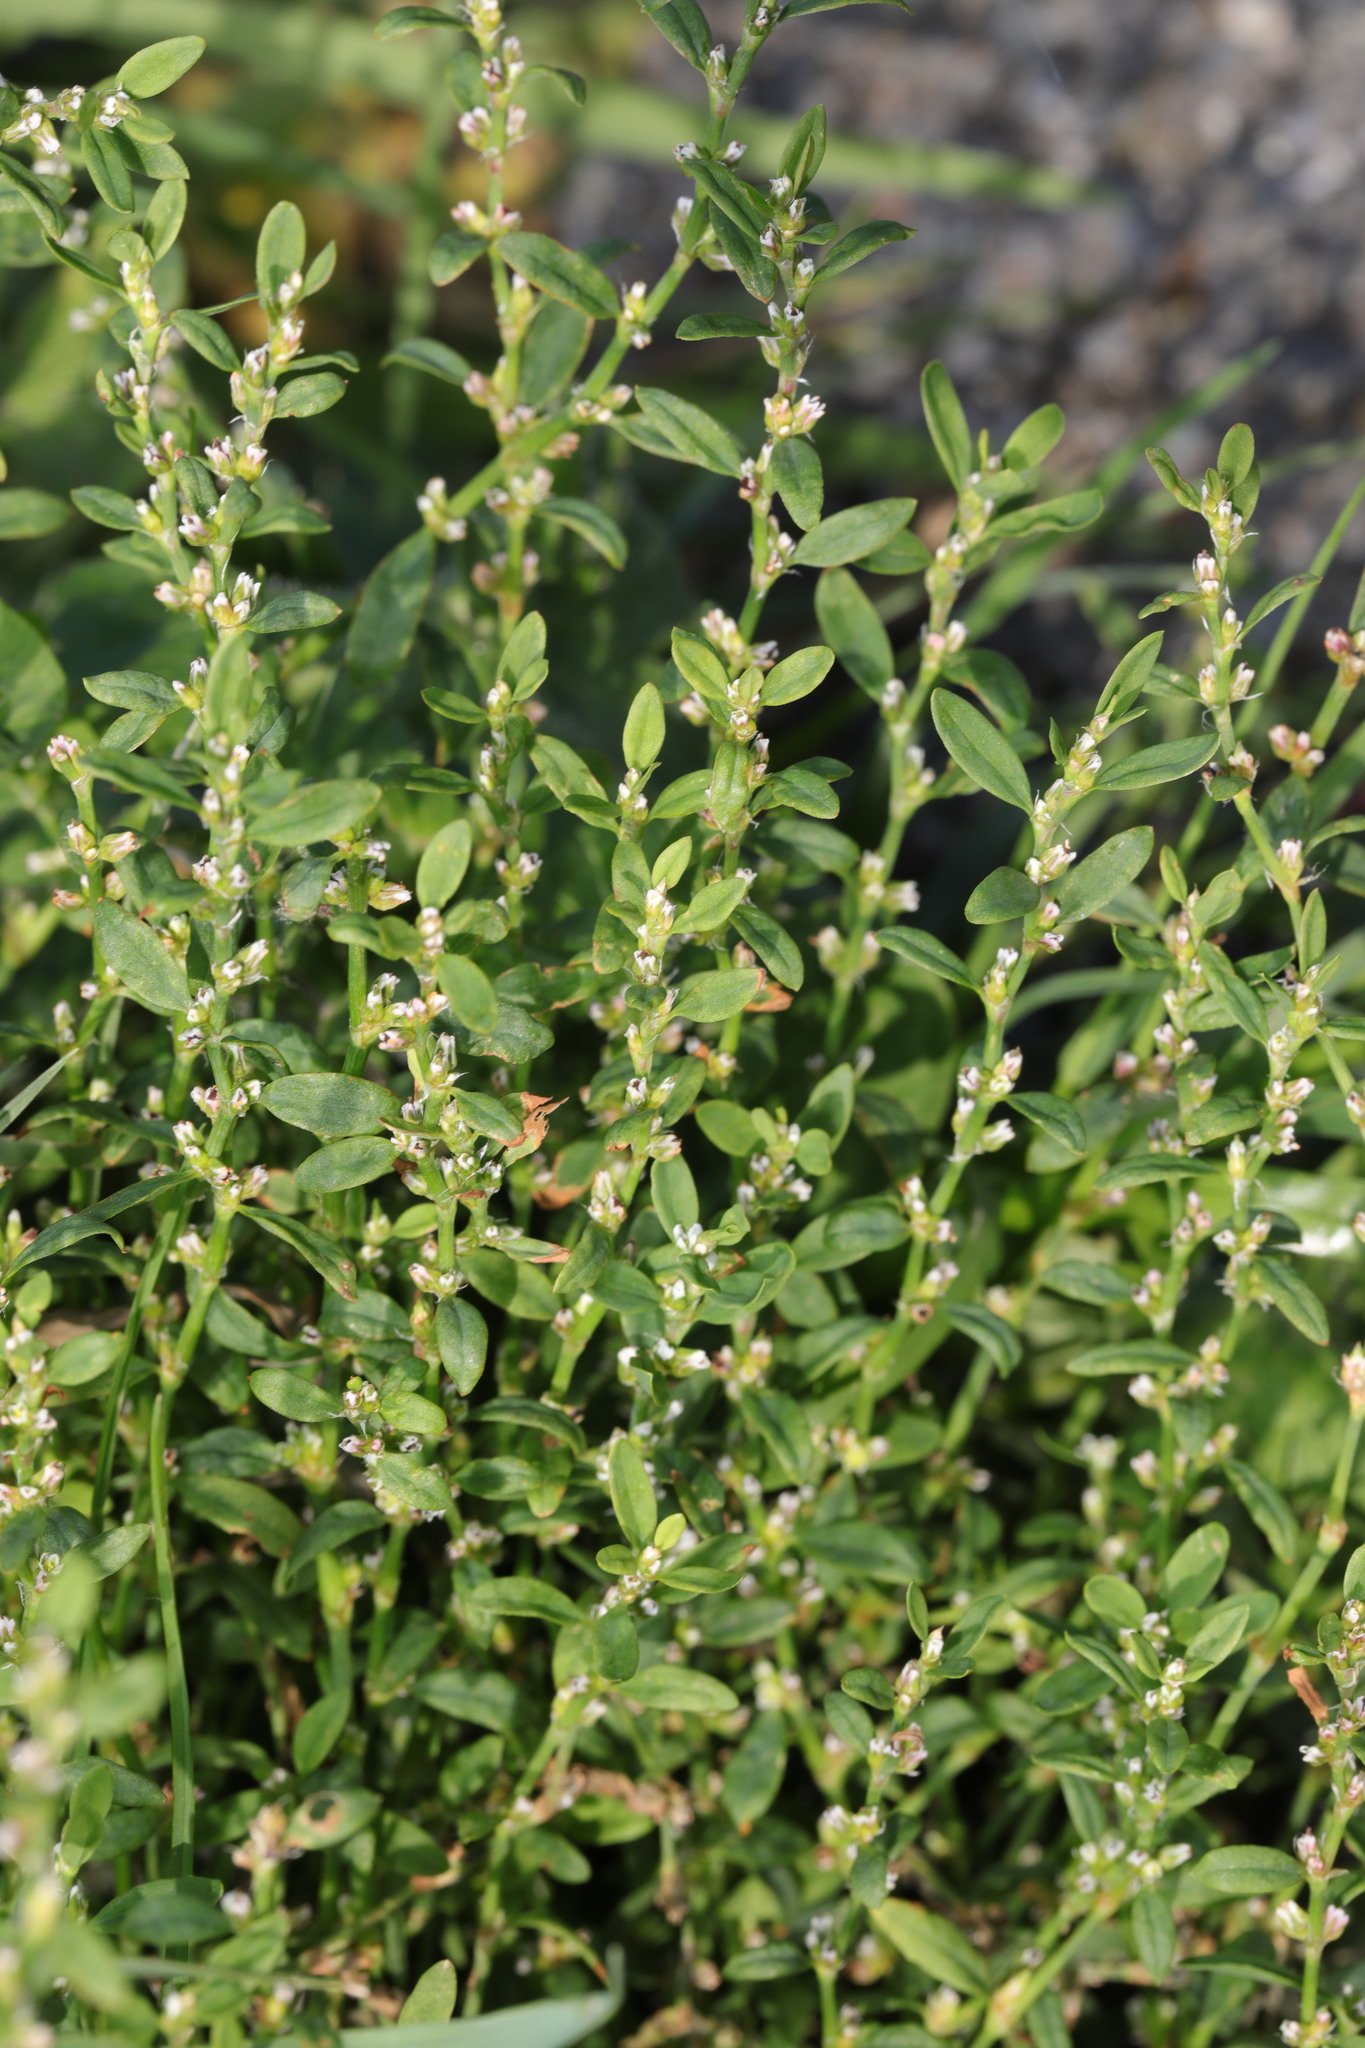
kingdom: Plantae
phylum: Tracheophyta
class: Magnoliopsida
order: Caryophyllales
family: Polygonaceae
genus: Polygonum
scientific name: Polygonum aviculare
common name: Prostrate knotweed
